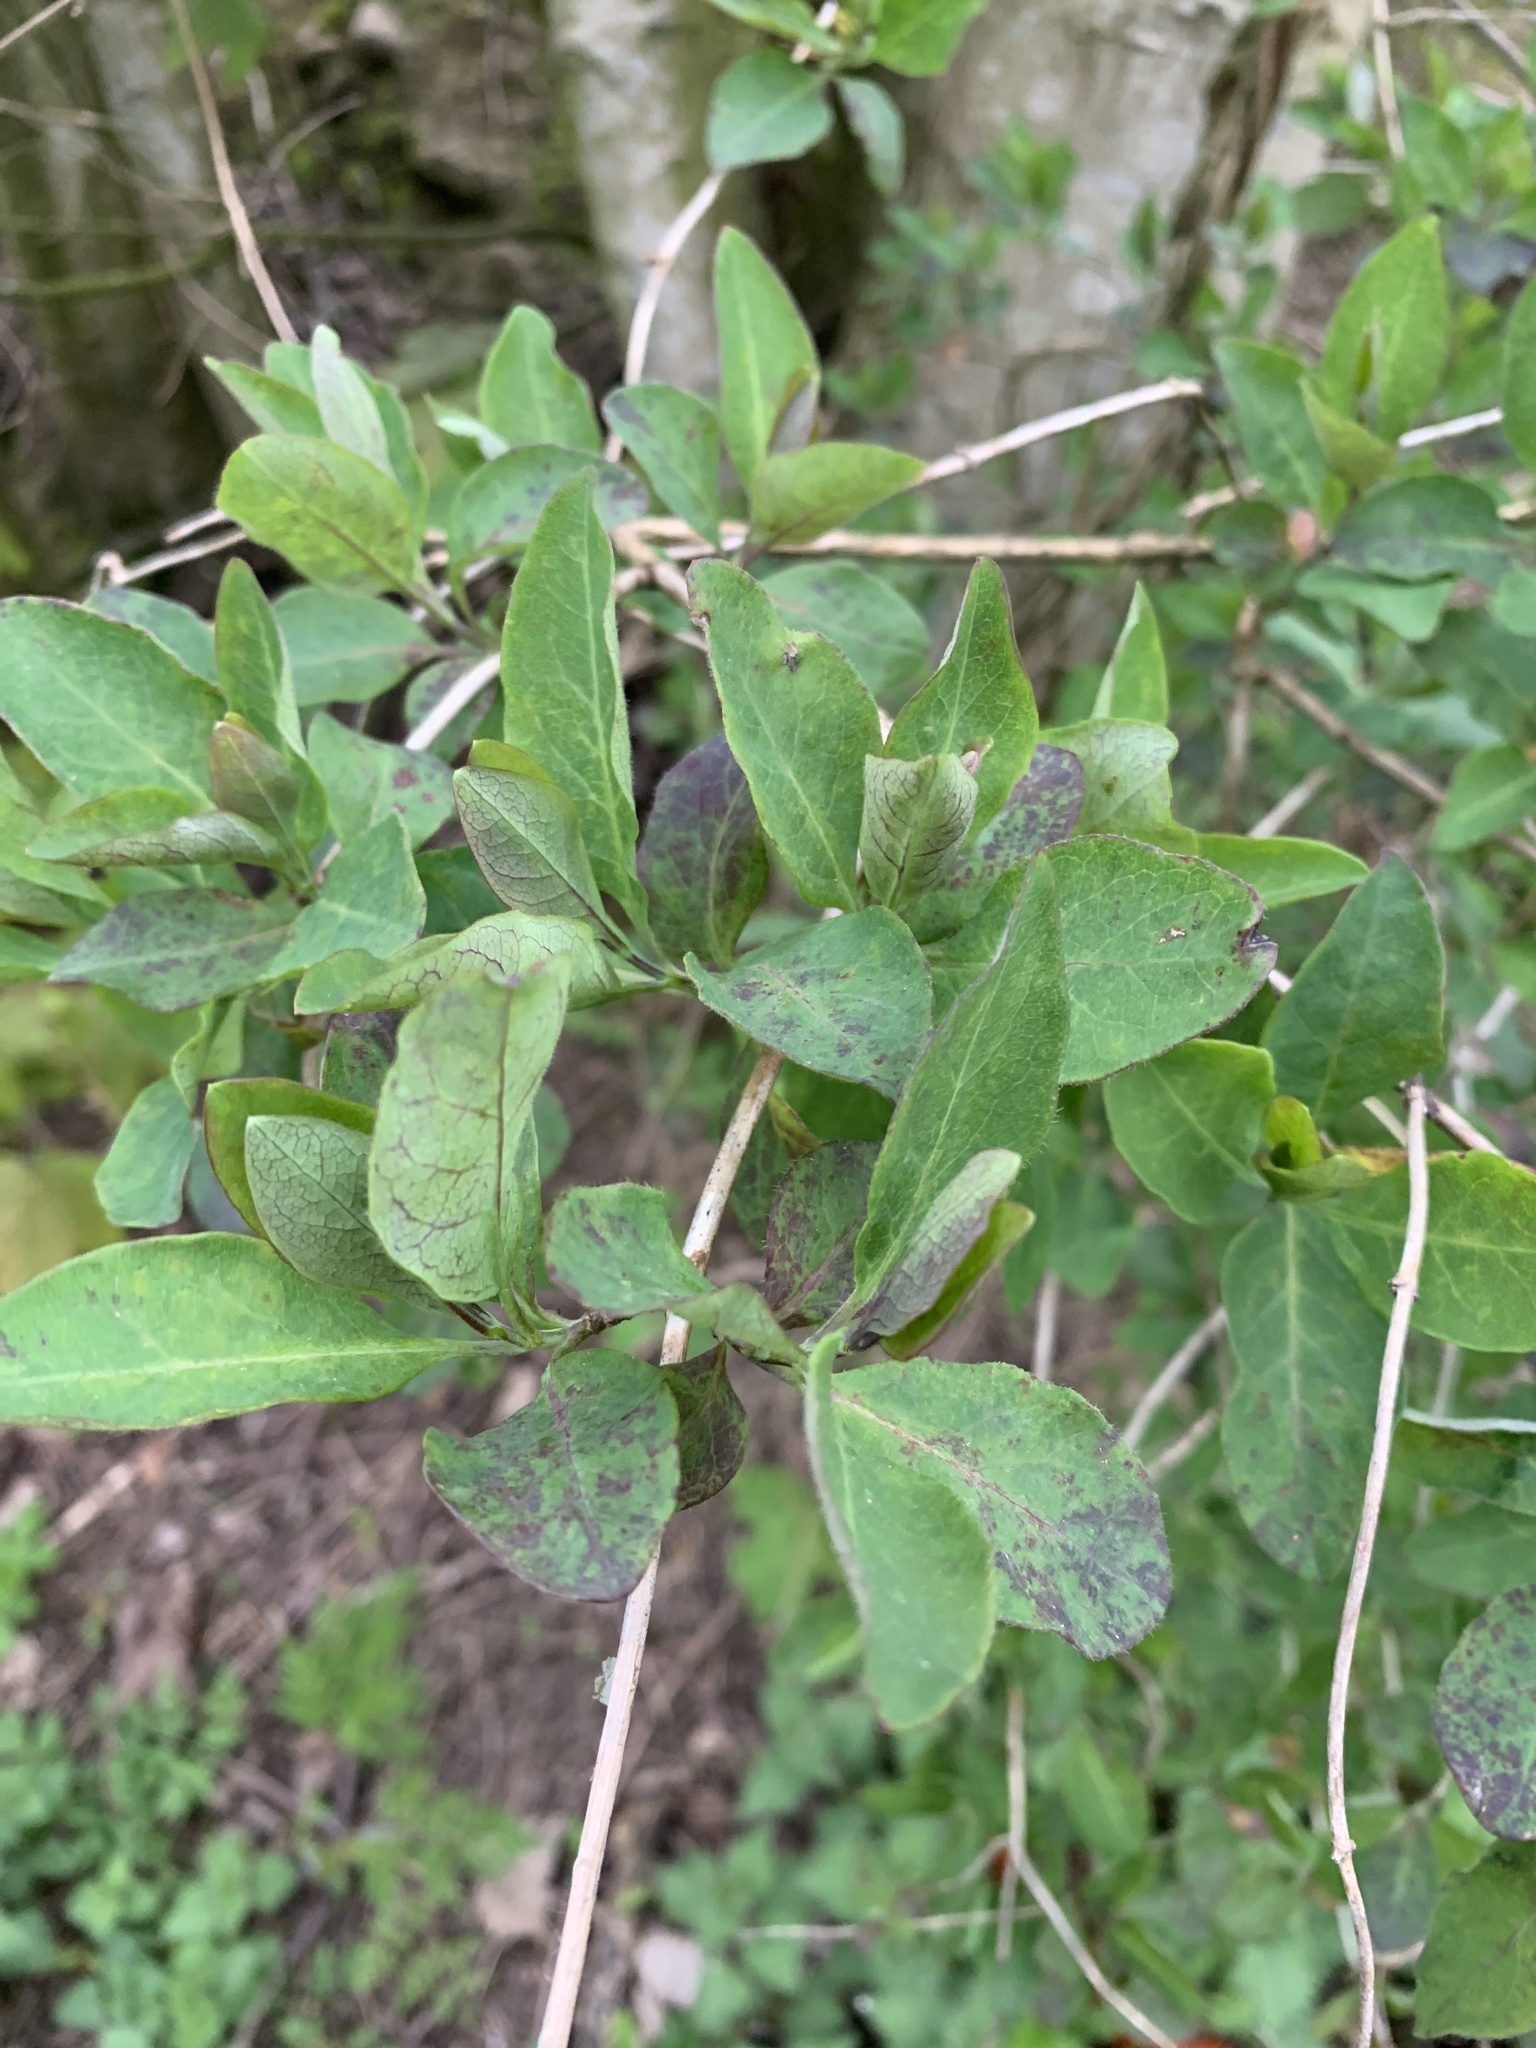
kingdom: Plantae
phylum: Tracheophyta
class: Magnoliopsida
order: Dipsacales
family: Caprifoliaceae
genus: Lonicera
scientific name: Lonicera periclymenum
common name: European honeysuckle
